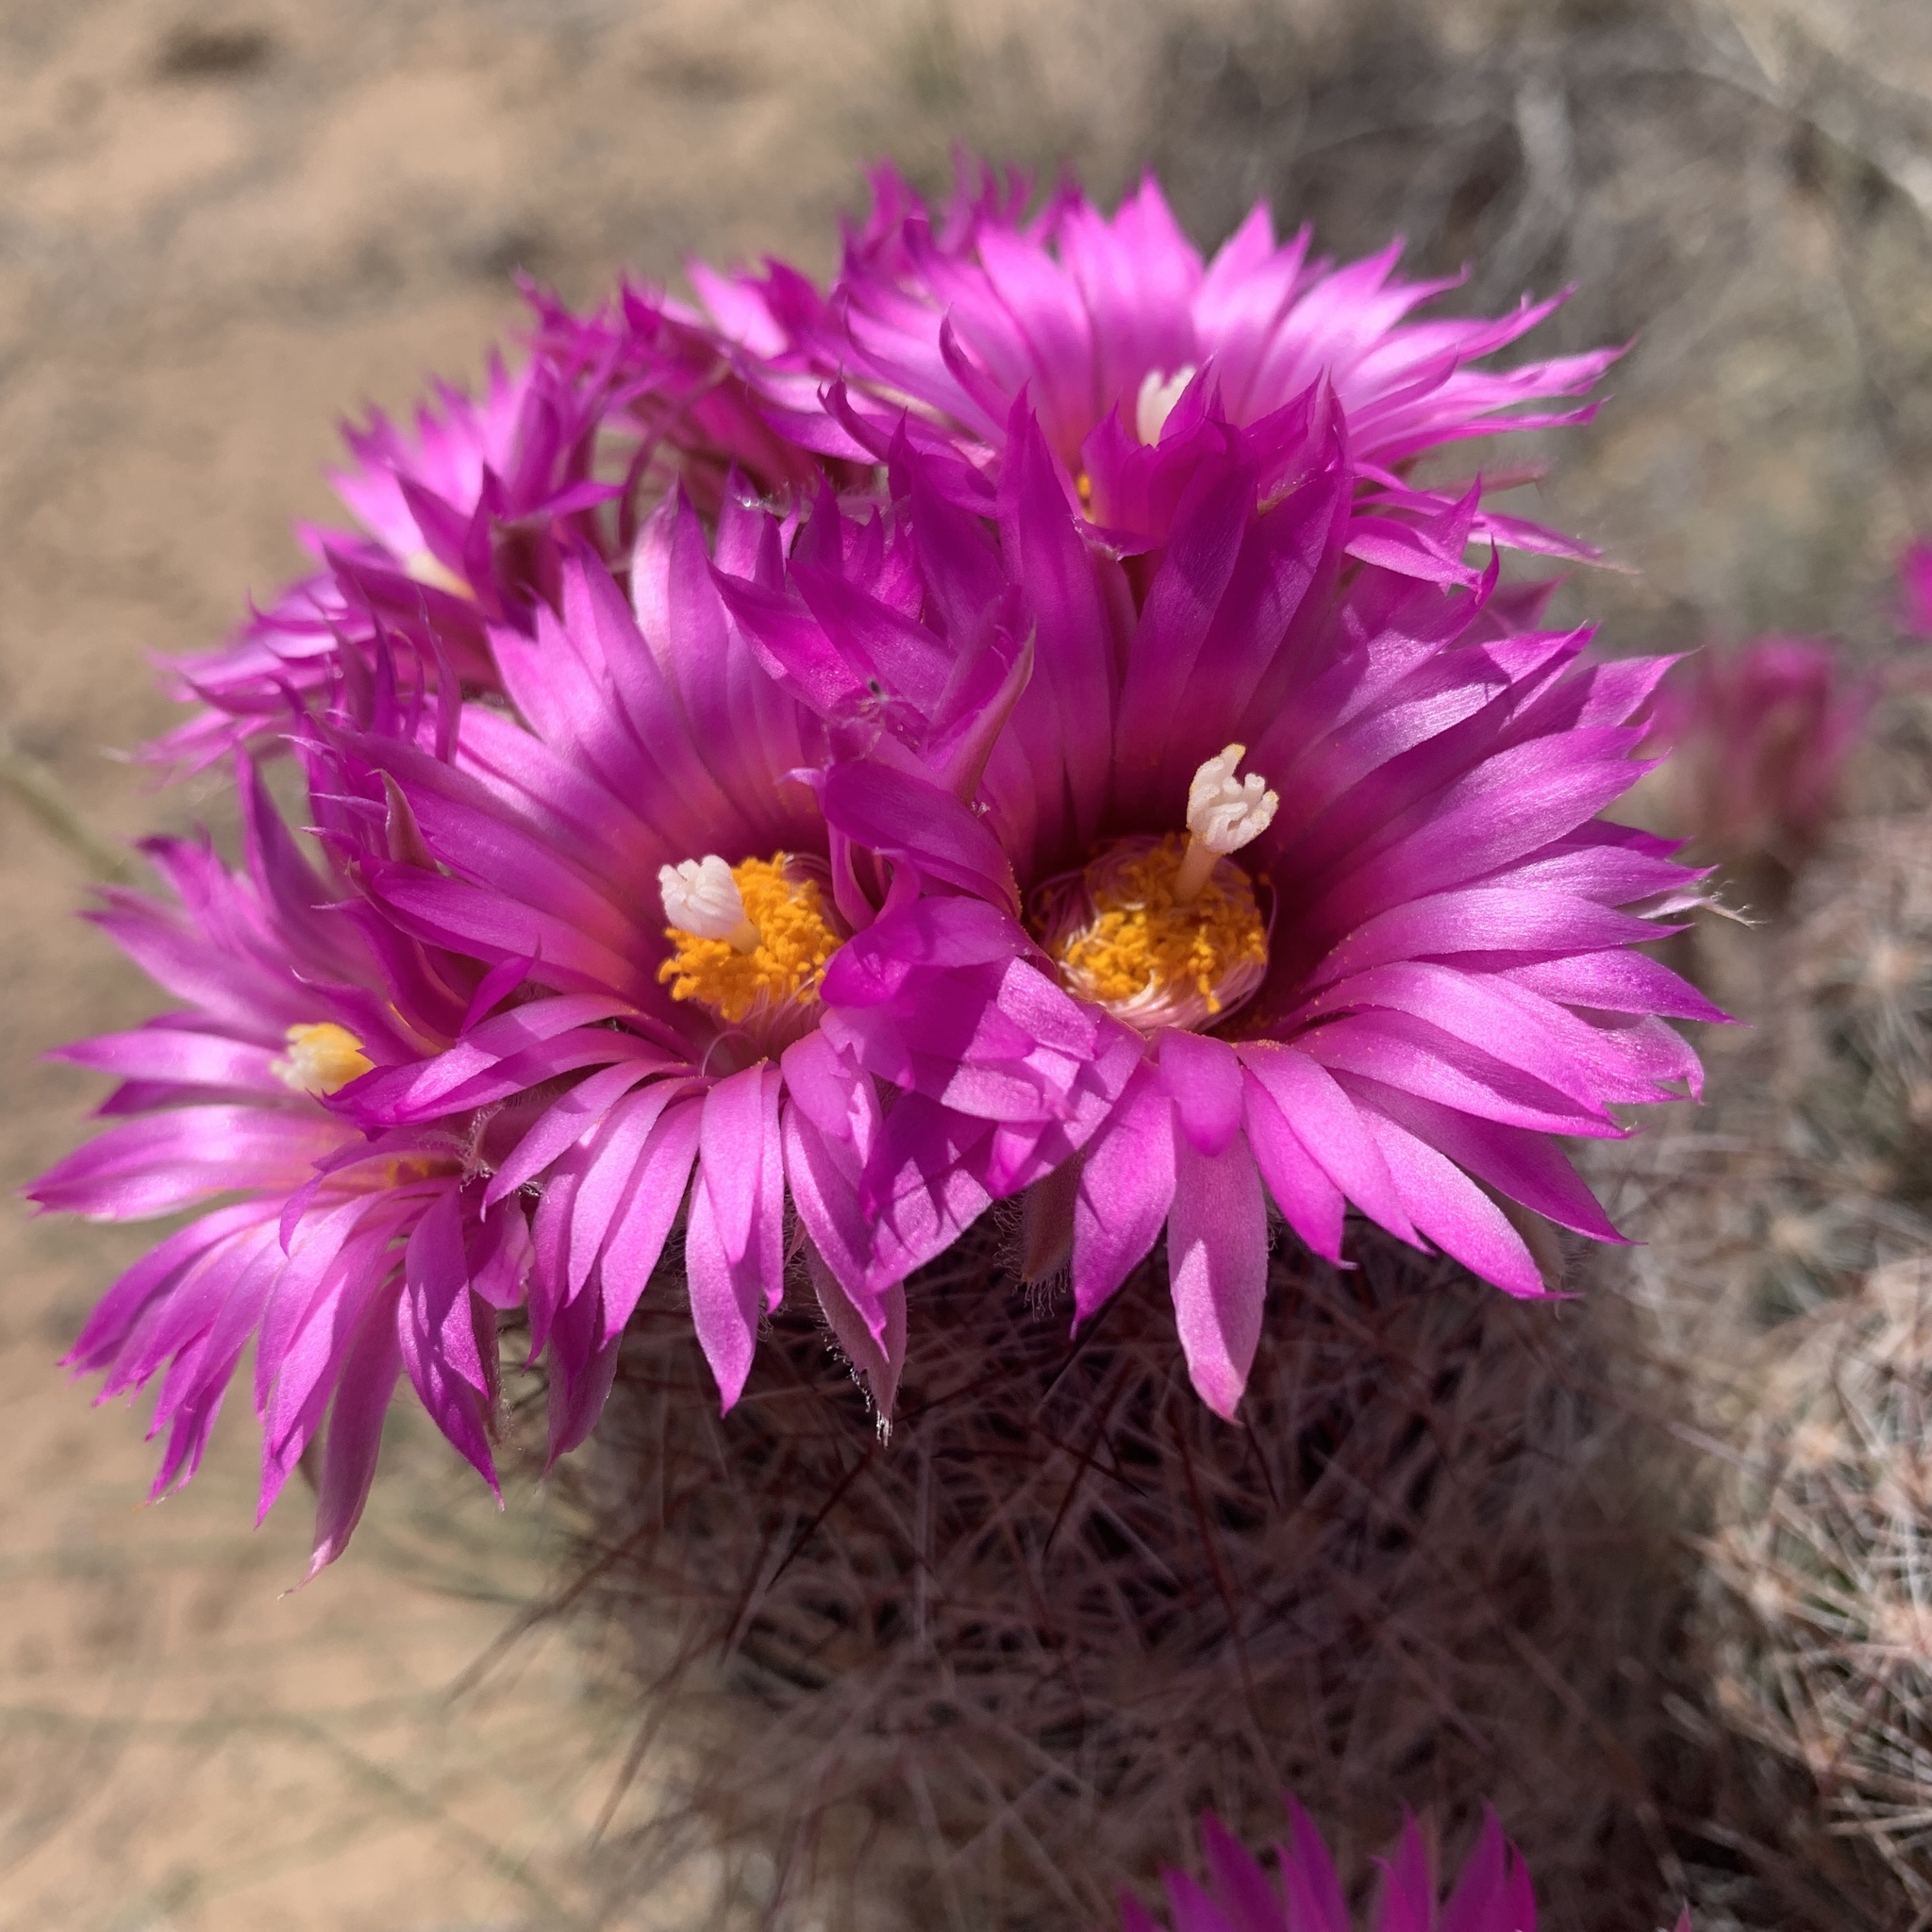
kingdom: Plantae
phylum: Tracheophyta
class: Magnoliopsida
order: Caryophyllales
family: Cactaceae
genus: Pelecyphora
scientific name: Pelecyphora vivipara
